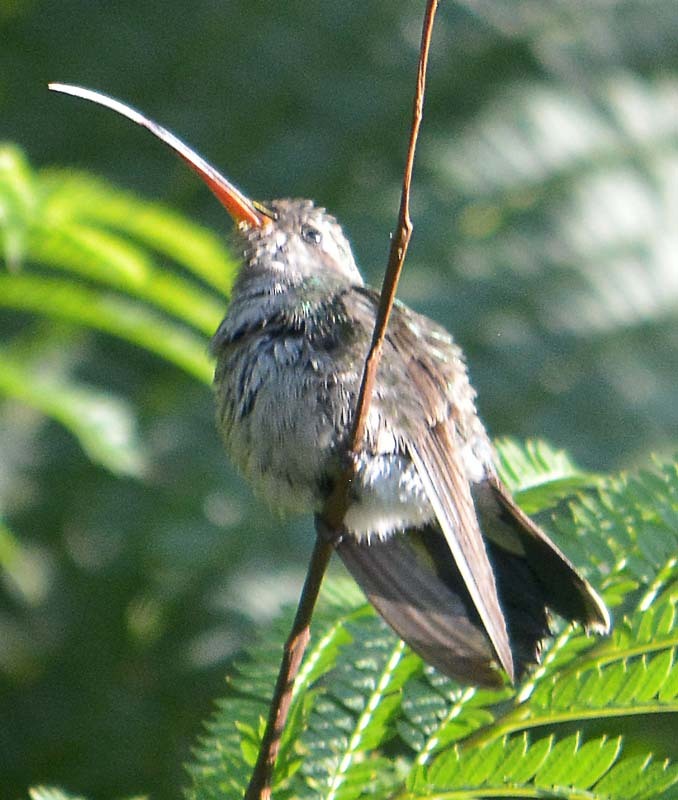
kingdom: Animalia
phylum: Chordata
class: Aves
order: Apodiformes
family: Trochilidae
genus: Cynanthus
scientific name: Cynanthus latirostris
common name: Broad-billed hummingbird
